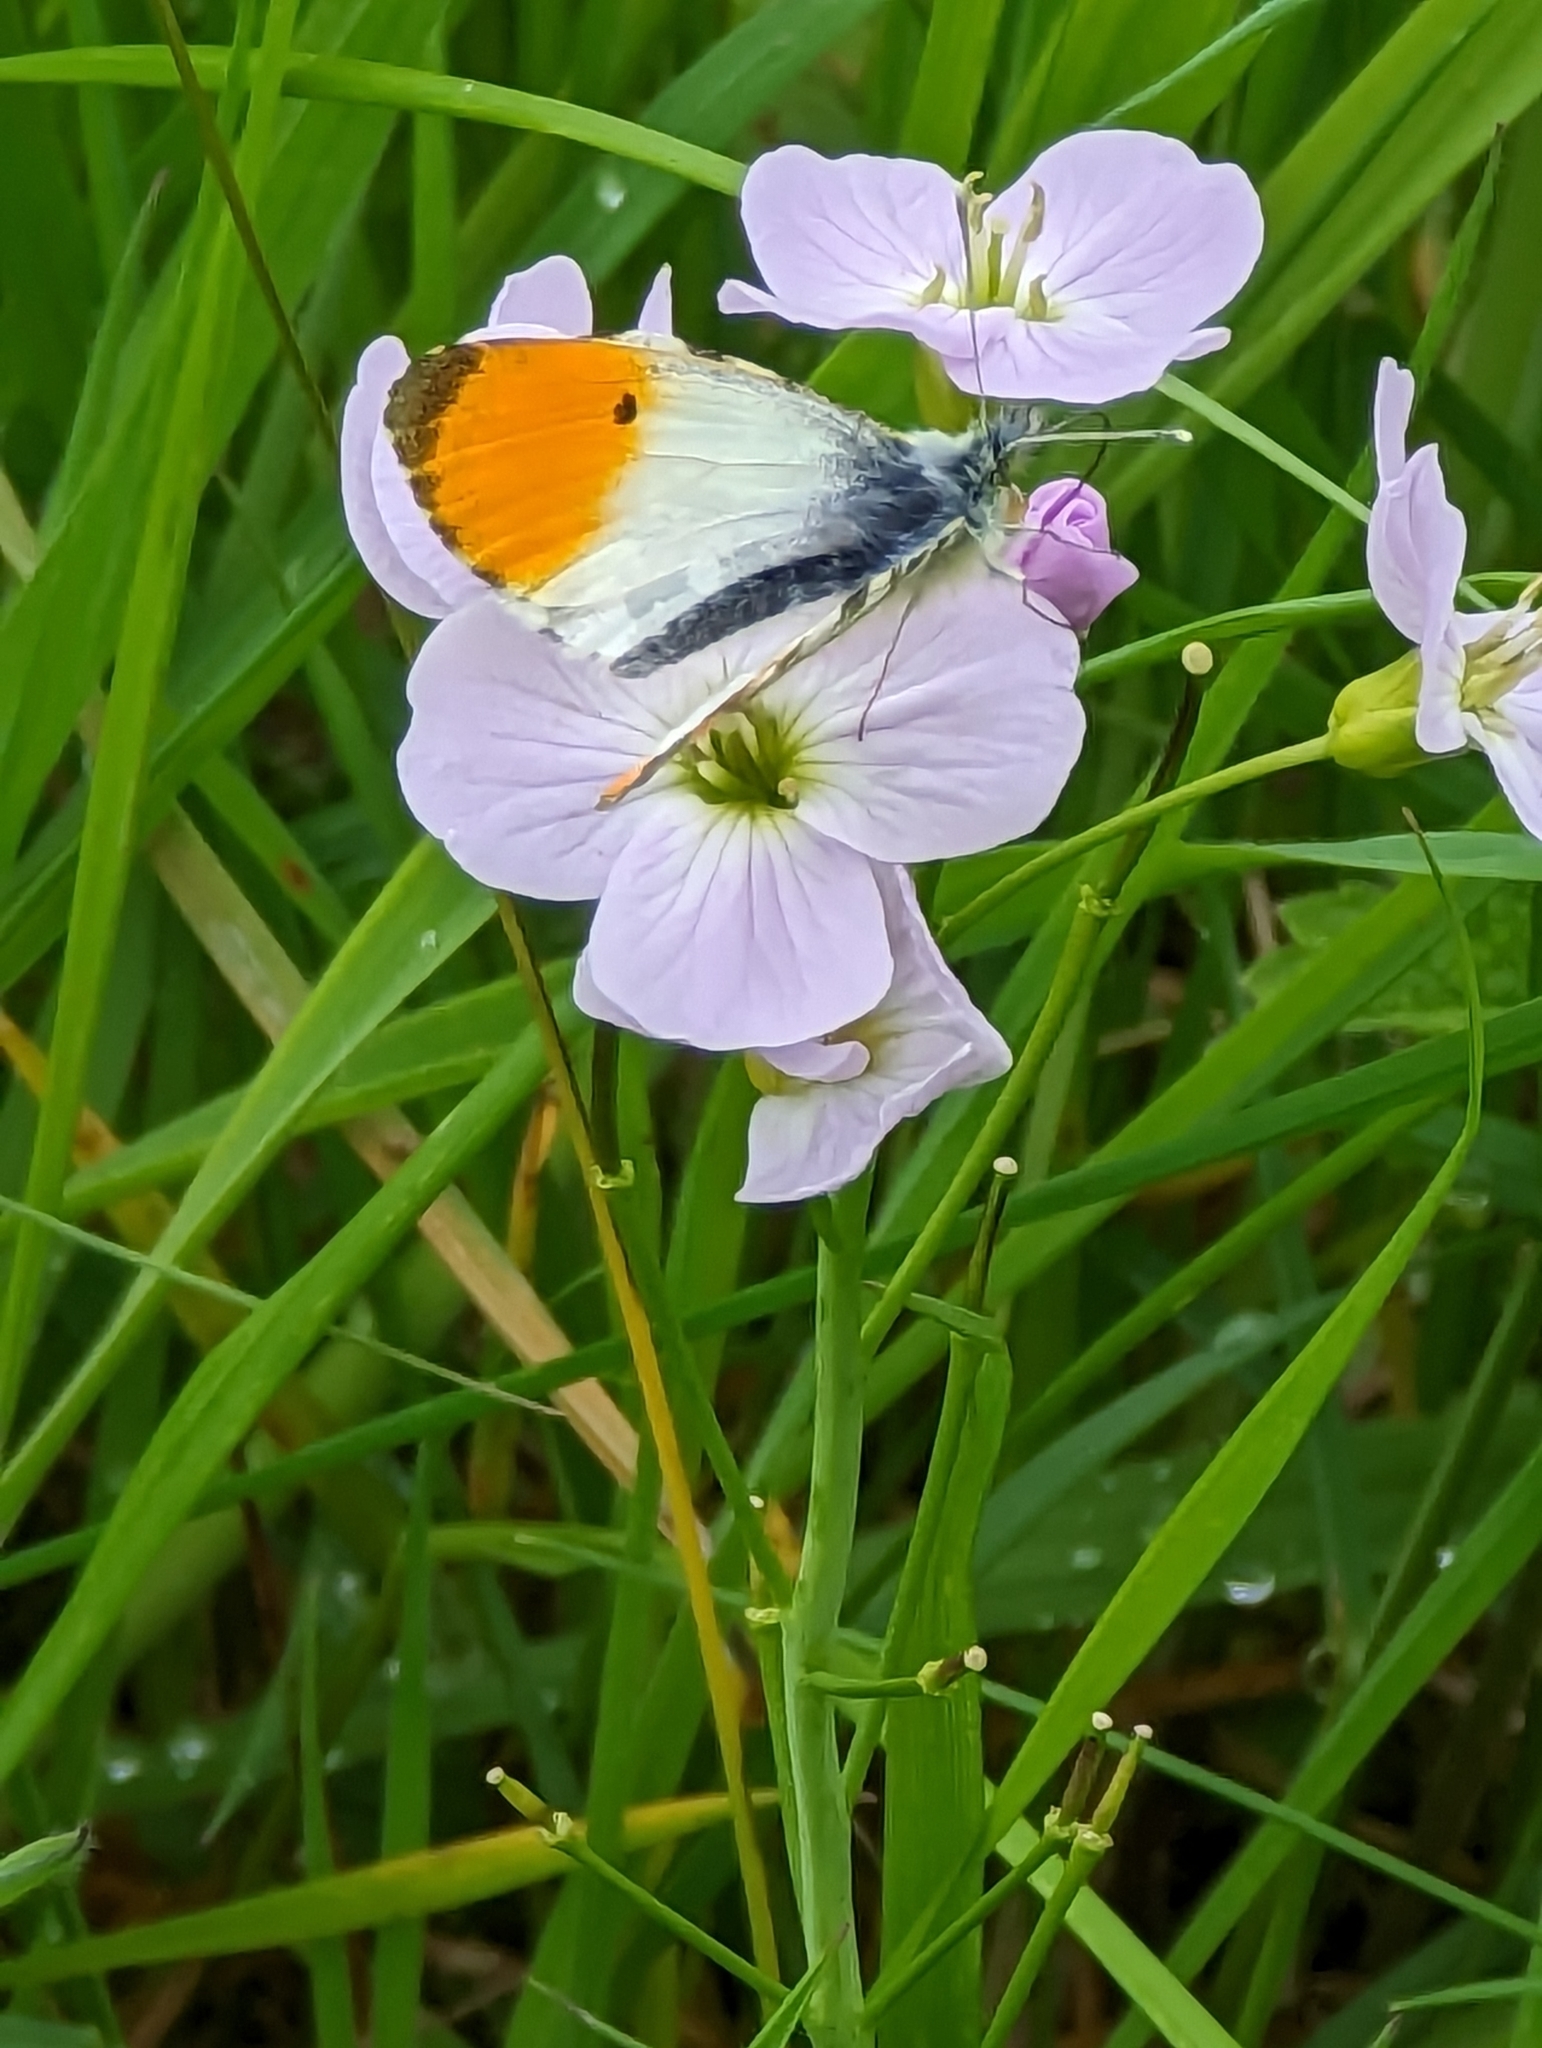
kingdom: Animalia
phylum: Arthropoda
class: Insecta
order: Lepidoptera
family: Pieridae
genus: Anthocharis
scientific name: Anthocharis cardamines
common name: Orange-tip
